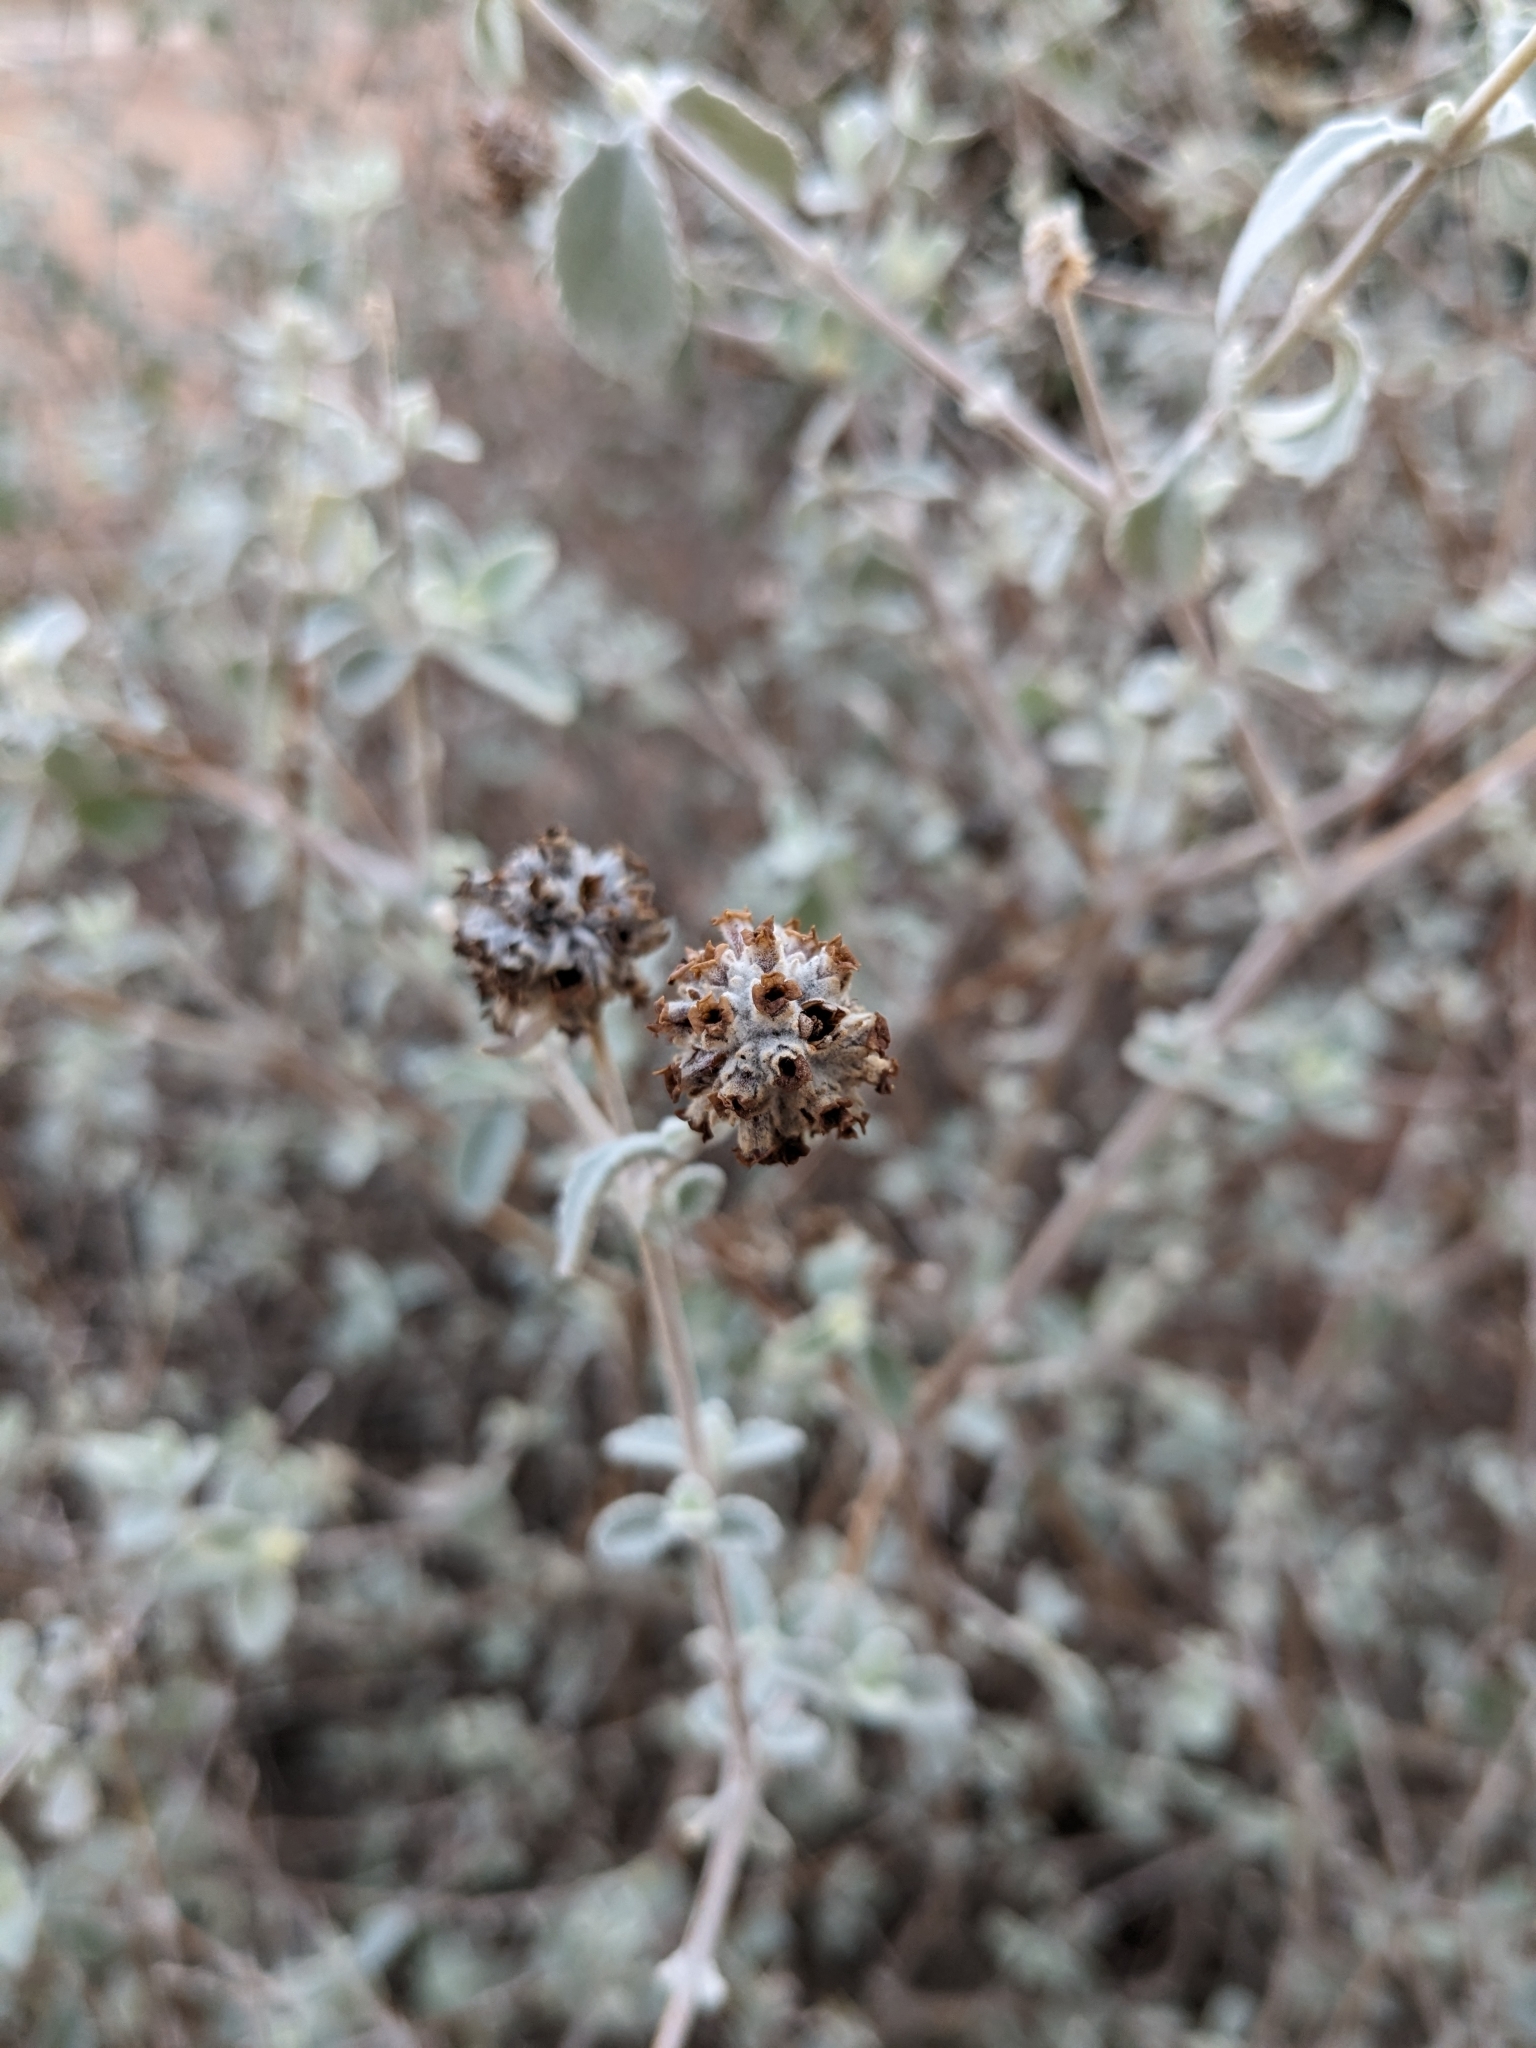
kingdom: Plantae
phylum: Tracheophyta
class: Magnoliopsida
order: Lamiales
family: Scrophulariaceae
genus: Buddleja
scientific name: Buddleja marrubiifolia
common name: Woolly butterfly-bush
